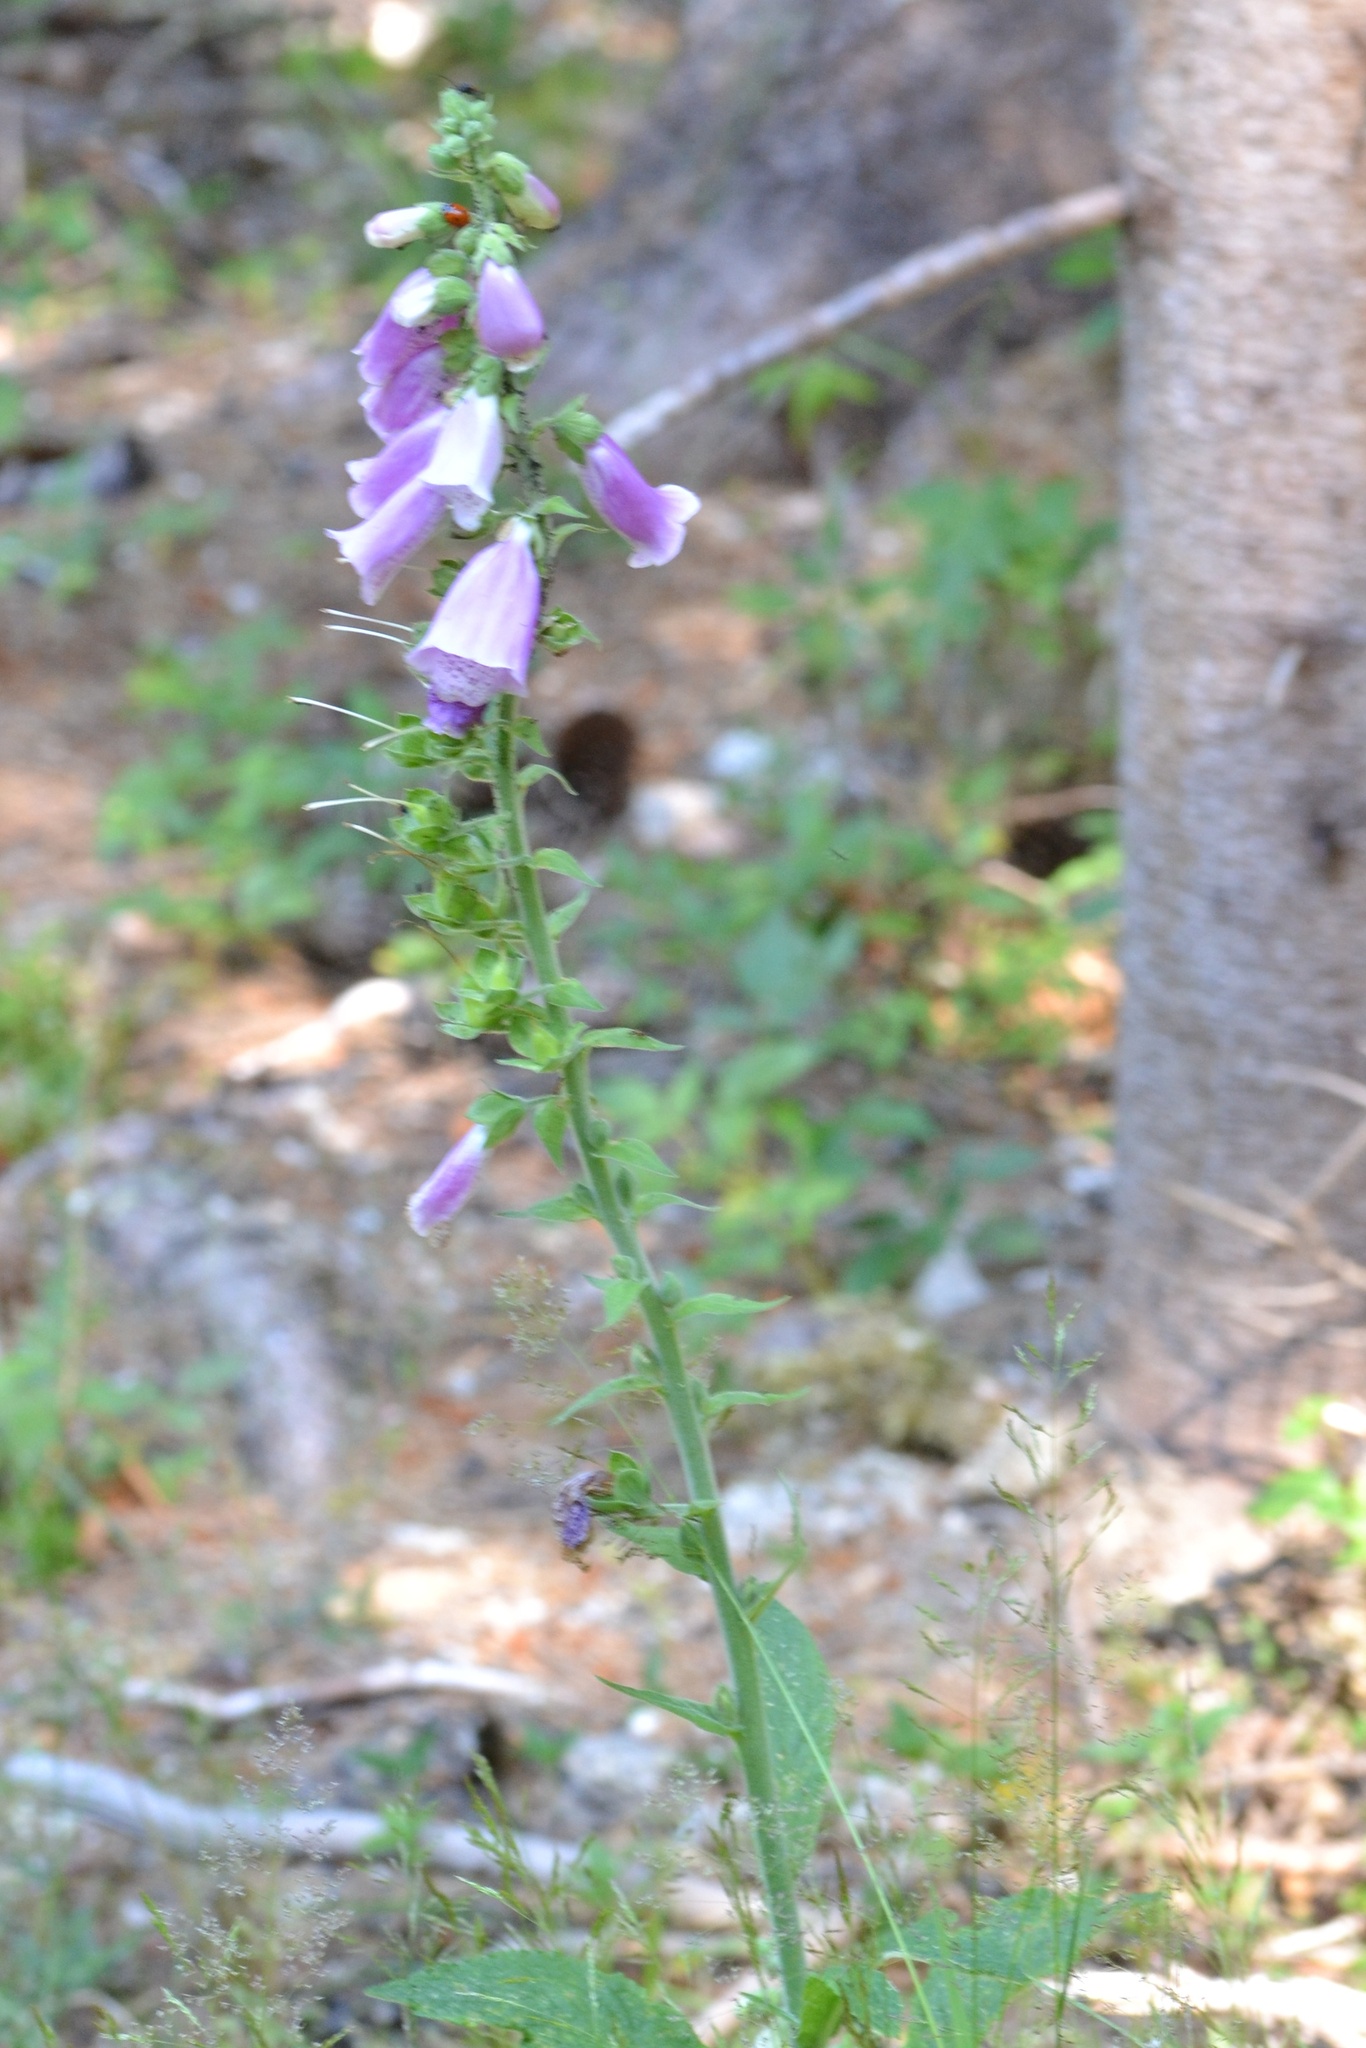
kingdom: Plantae
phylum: Tracheophyta
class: Magnoliopsida
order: Lamiales
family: Plantaginaceae
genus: Digitalis
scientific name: Digitalis purpurea
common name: Foxglove
